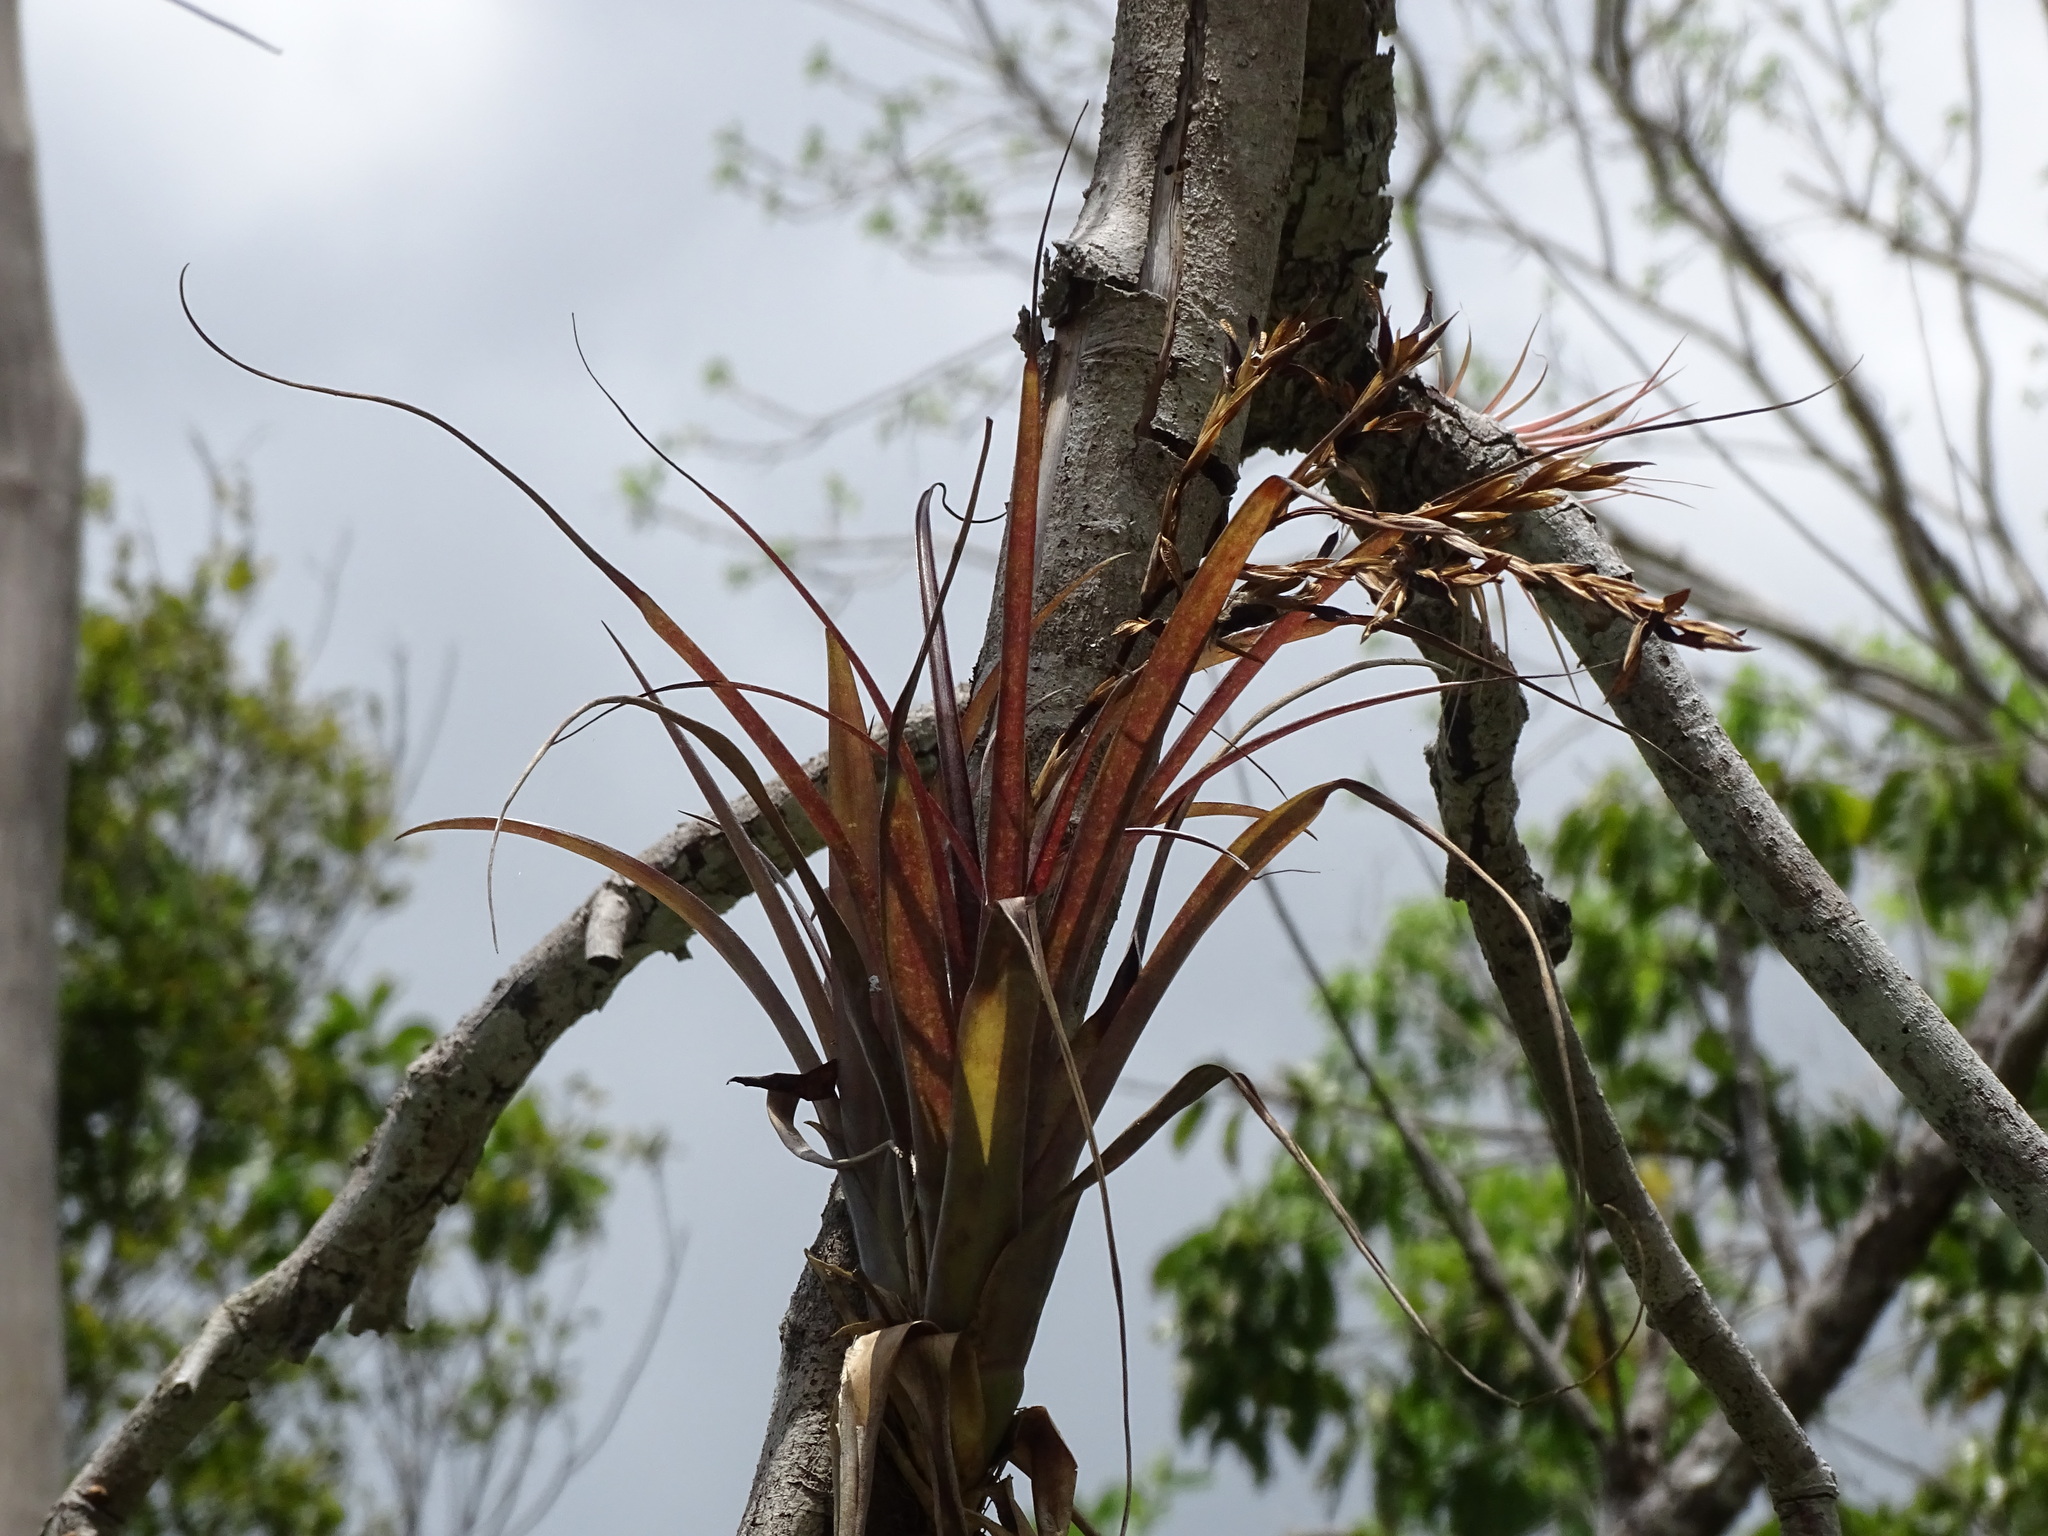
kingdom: Plantae
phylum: Tracheophyta
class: Liliopsida
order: Poales
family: Bromeliaceae
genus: Tillandsia
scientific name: Tillandsia dasyliriifolia
